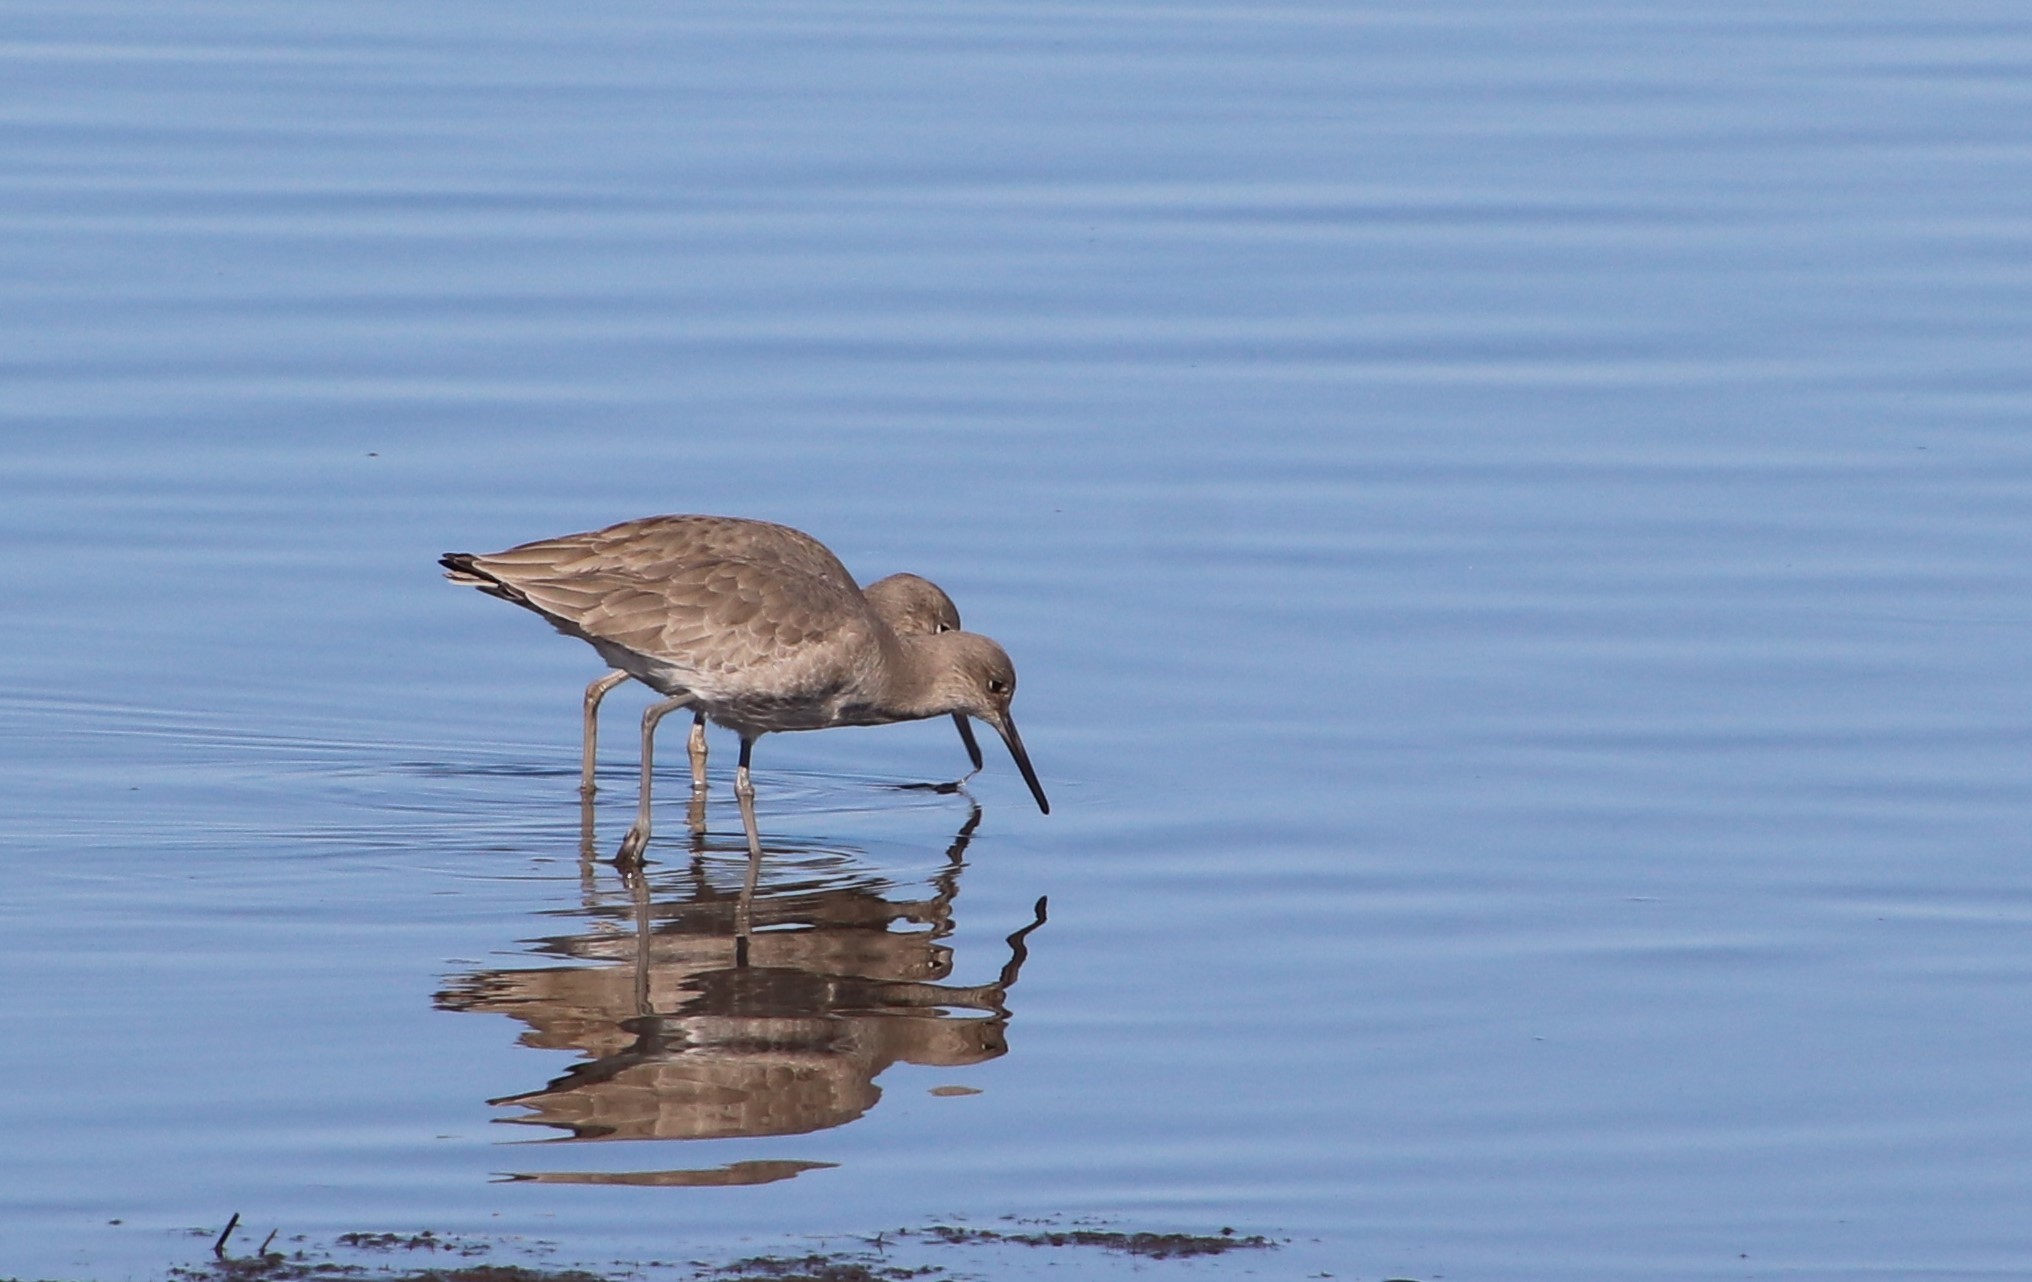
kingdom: Animalia
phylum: Chordata
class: Aves
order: Charadriiformes
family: Scolopacidae
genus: Tringa
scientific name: Tringa semipalmata
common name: Willet
